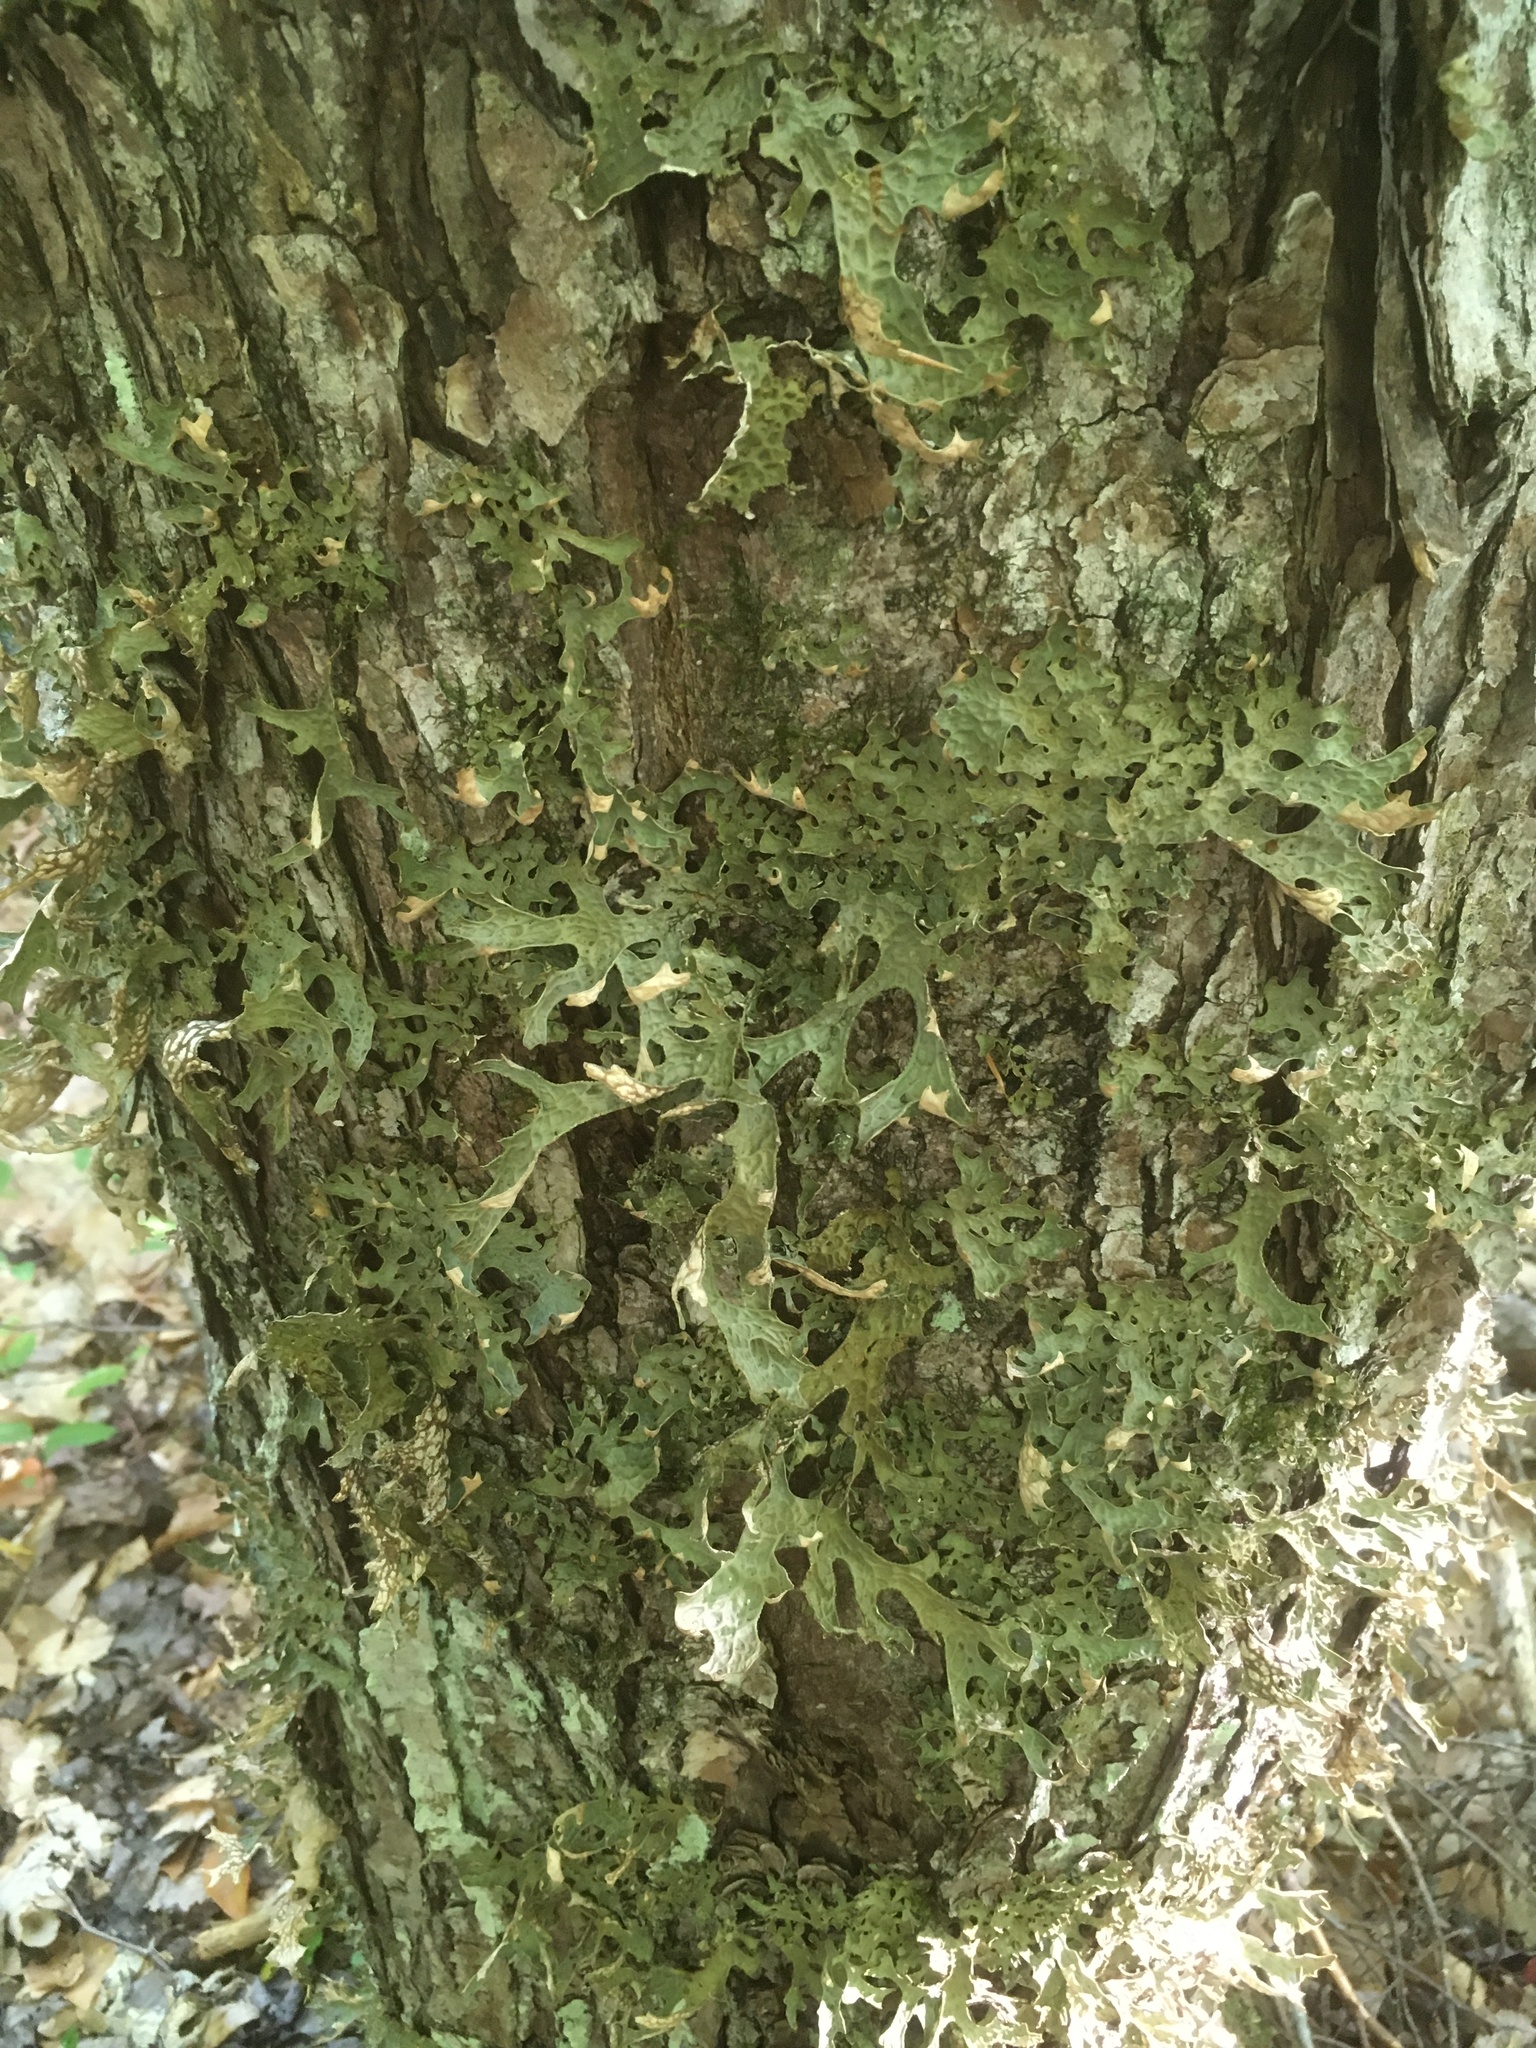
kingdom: Fungi
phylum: Ascomycota
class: Lecanoromycetes
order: Peltigerales
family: Lobariaceae
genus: Lobaria
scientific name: Lobaria pulmonaria
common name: Lungwort
